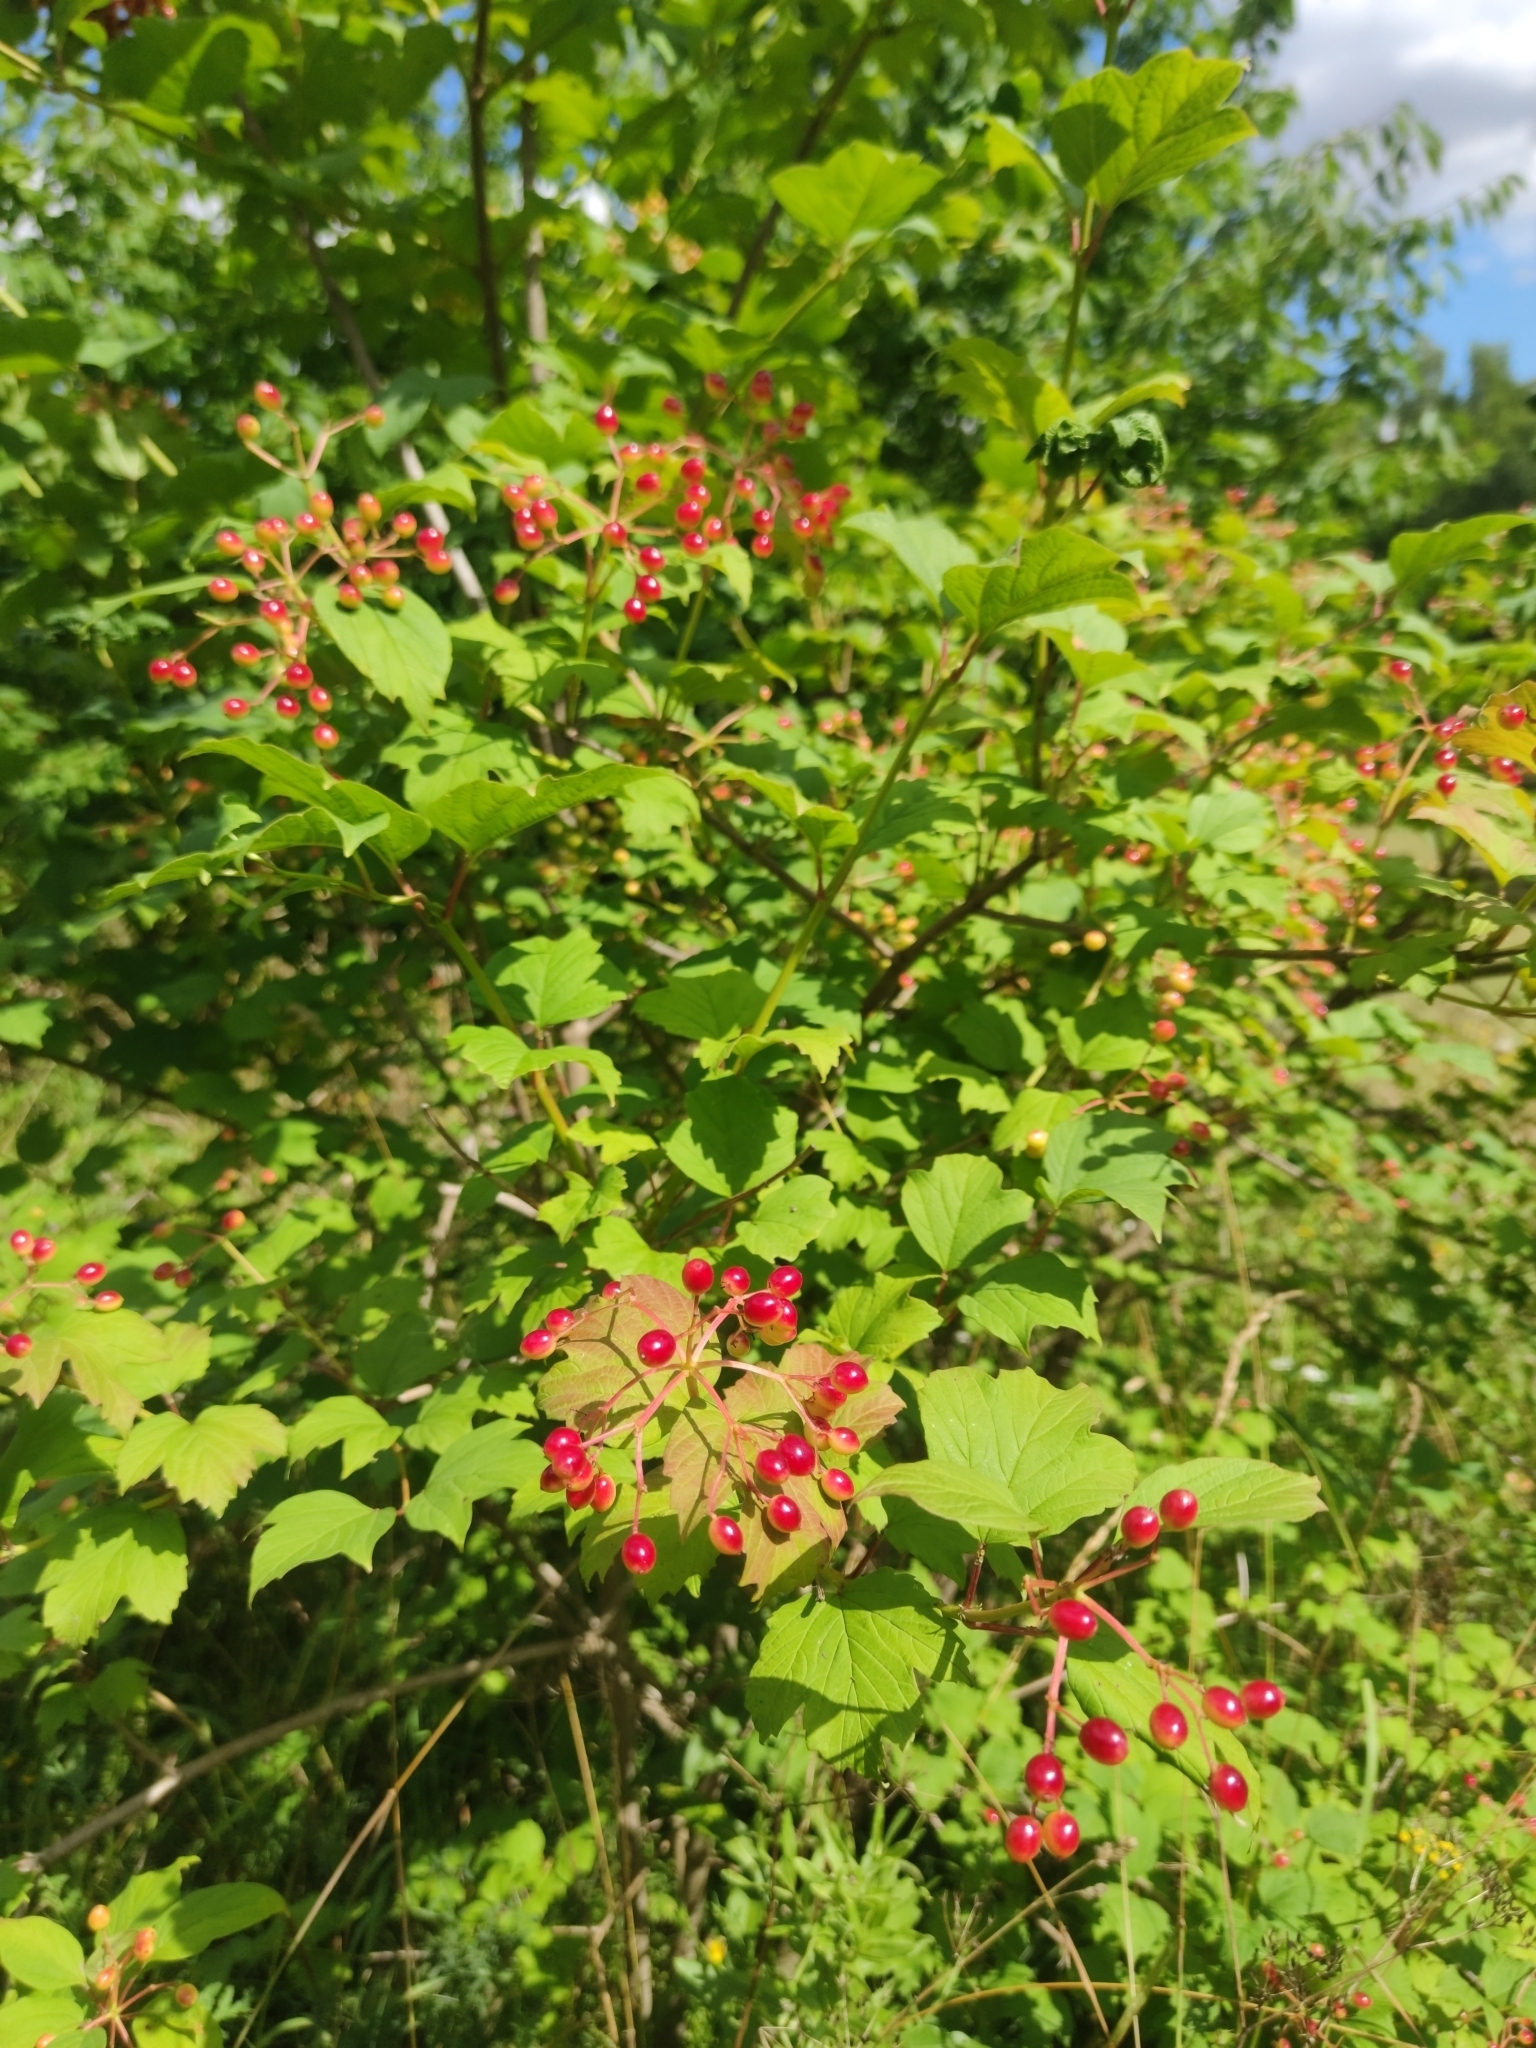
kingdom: Plantae
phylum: Tracheophyta
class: Magnoliopsida
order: Dipsacales
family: Viburnaceae
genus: Viburnum
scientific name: Viburnum opulus
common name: Guelder-rose
